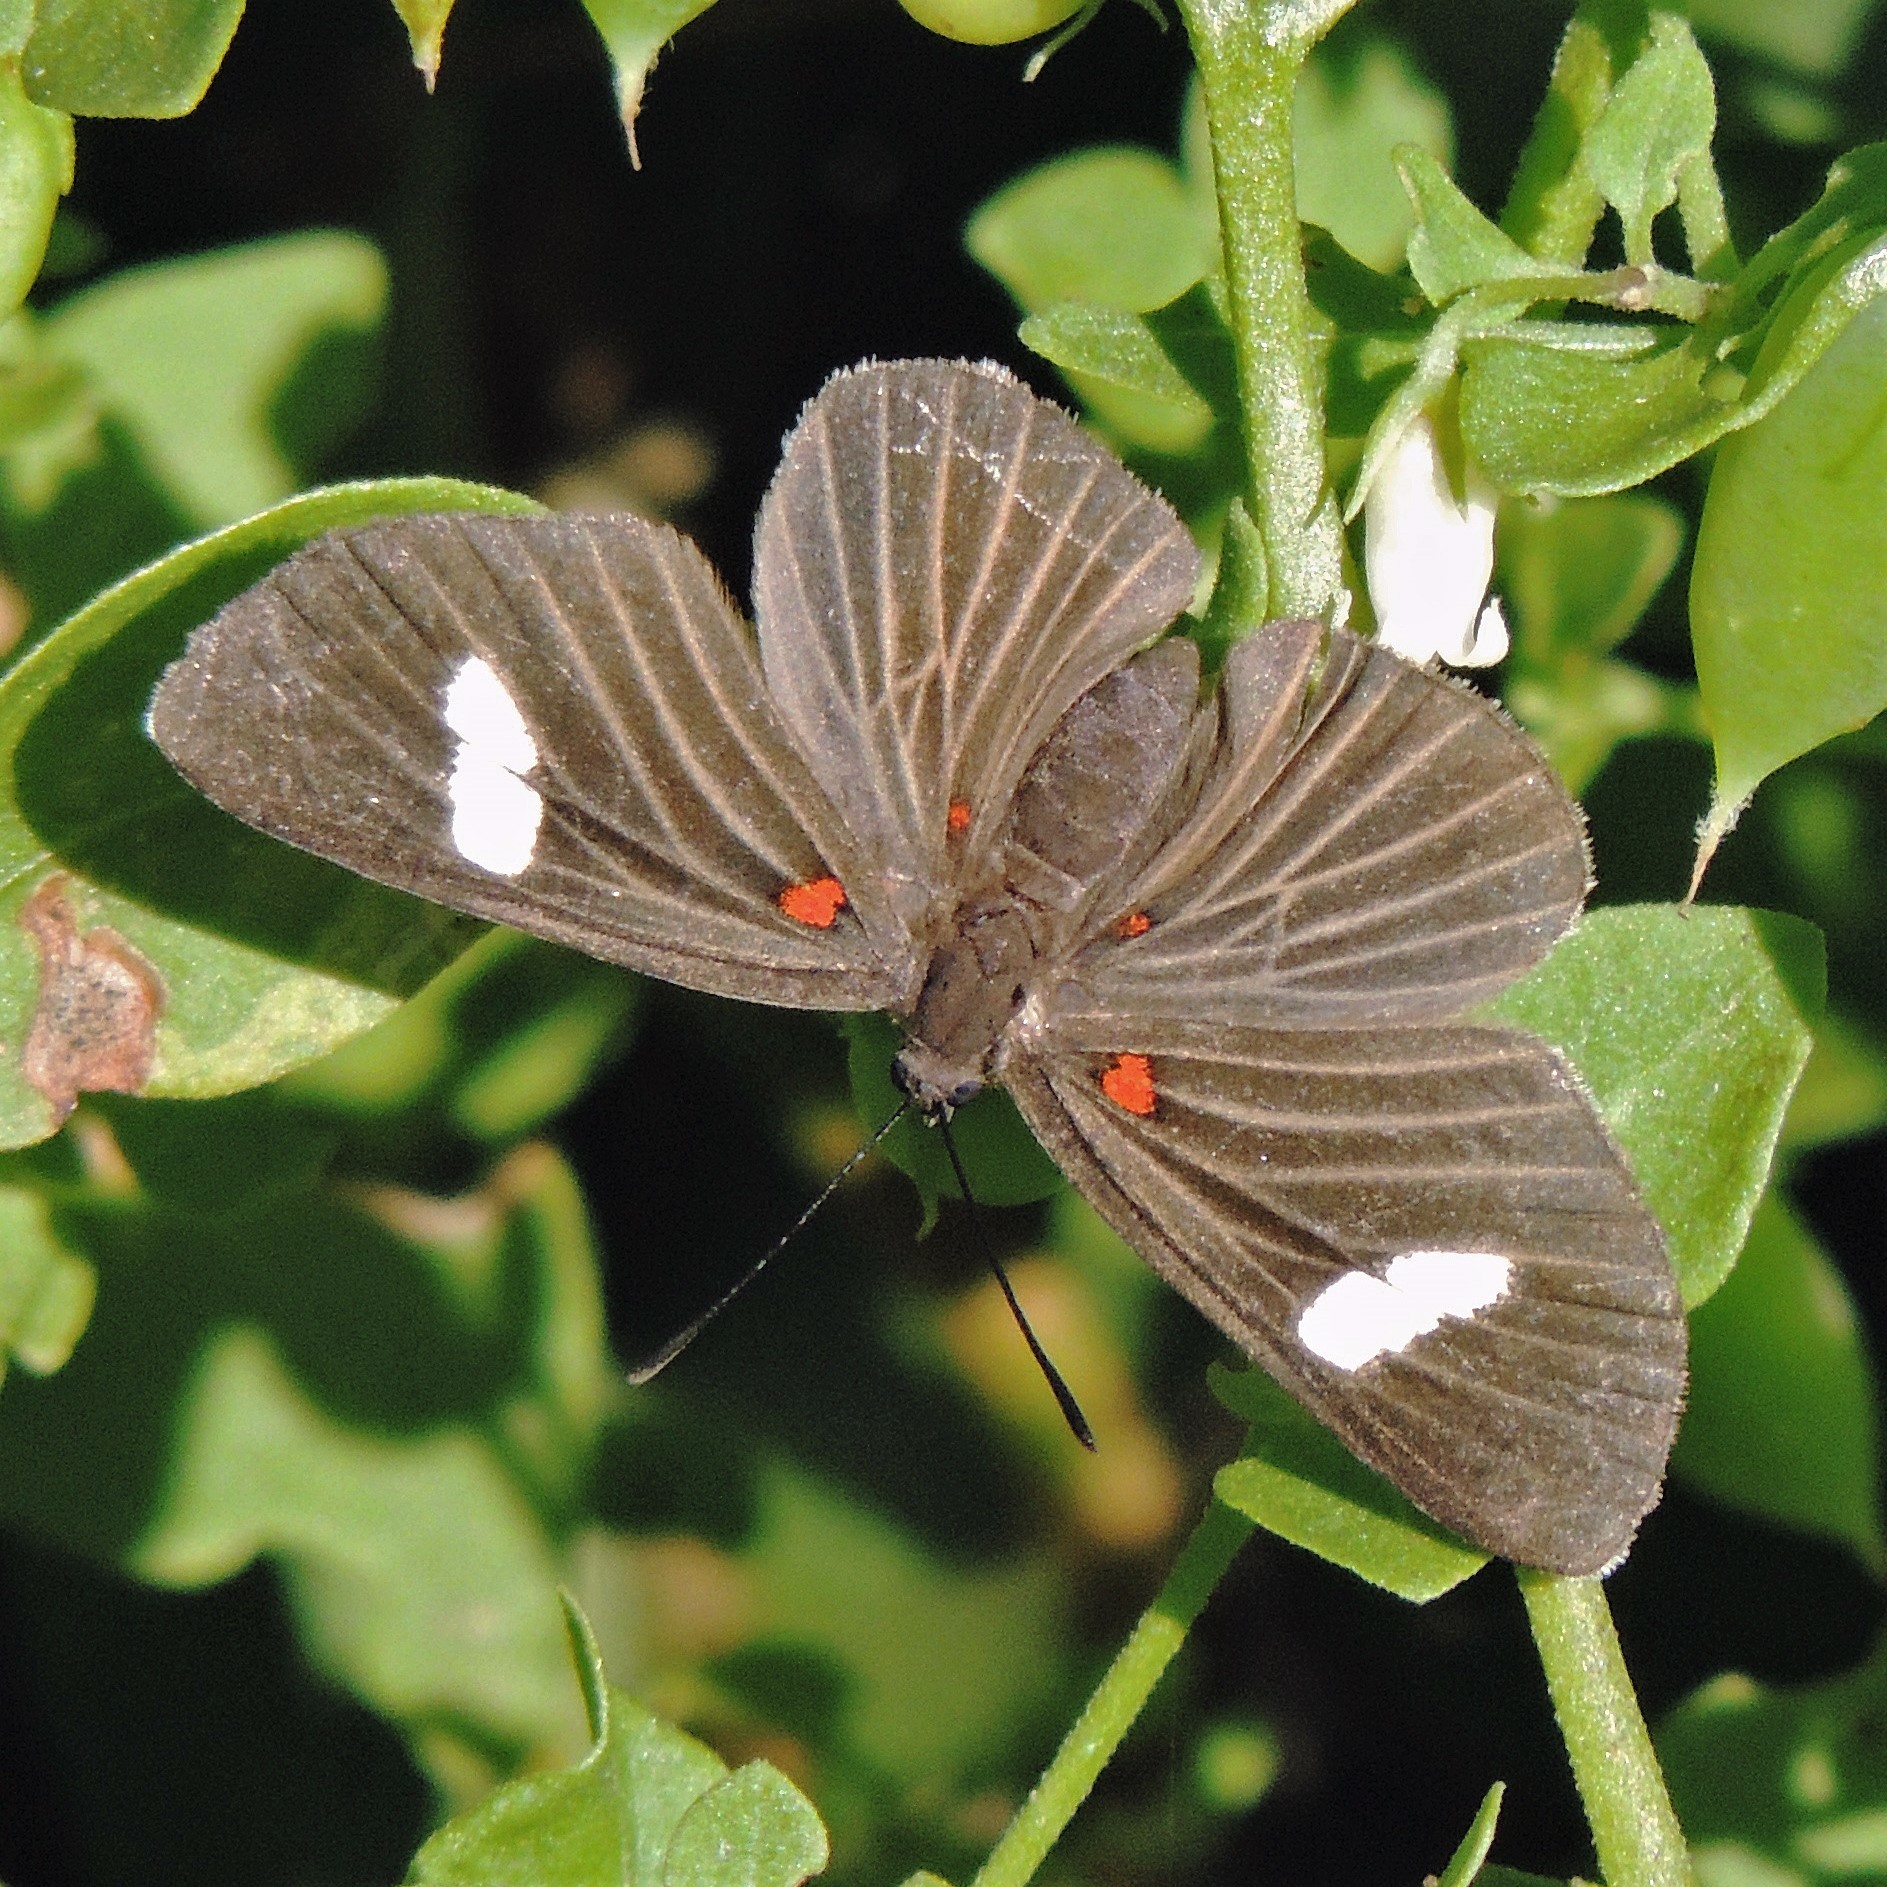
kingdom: Animalia
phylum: Arthropoda
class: Insecta
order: Lepidoptera
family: Lycaenidae
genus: Melanis
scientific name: Melanis aegates
